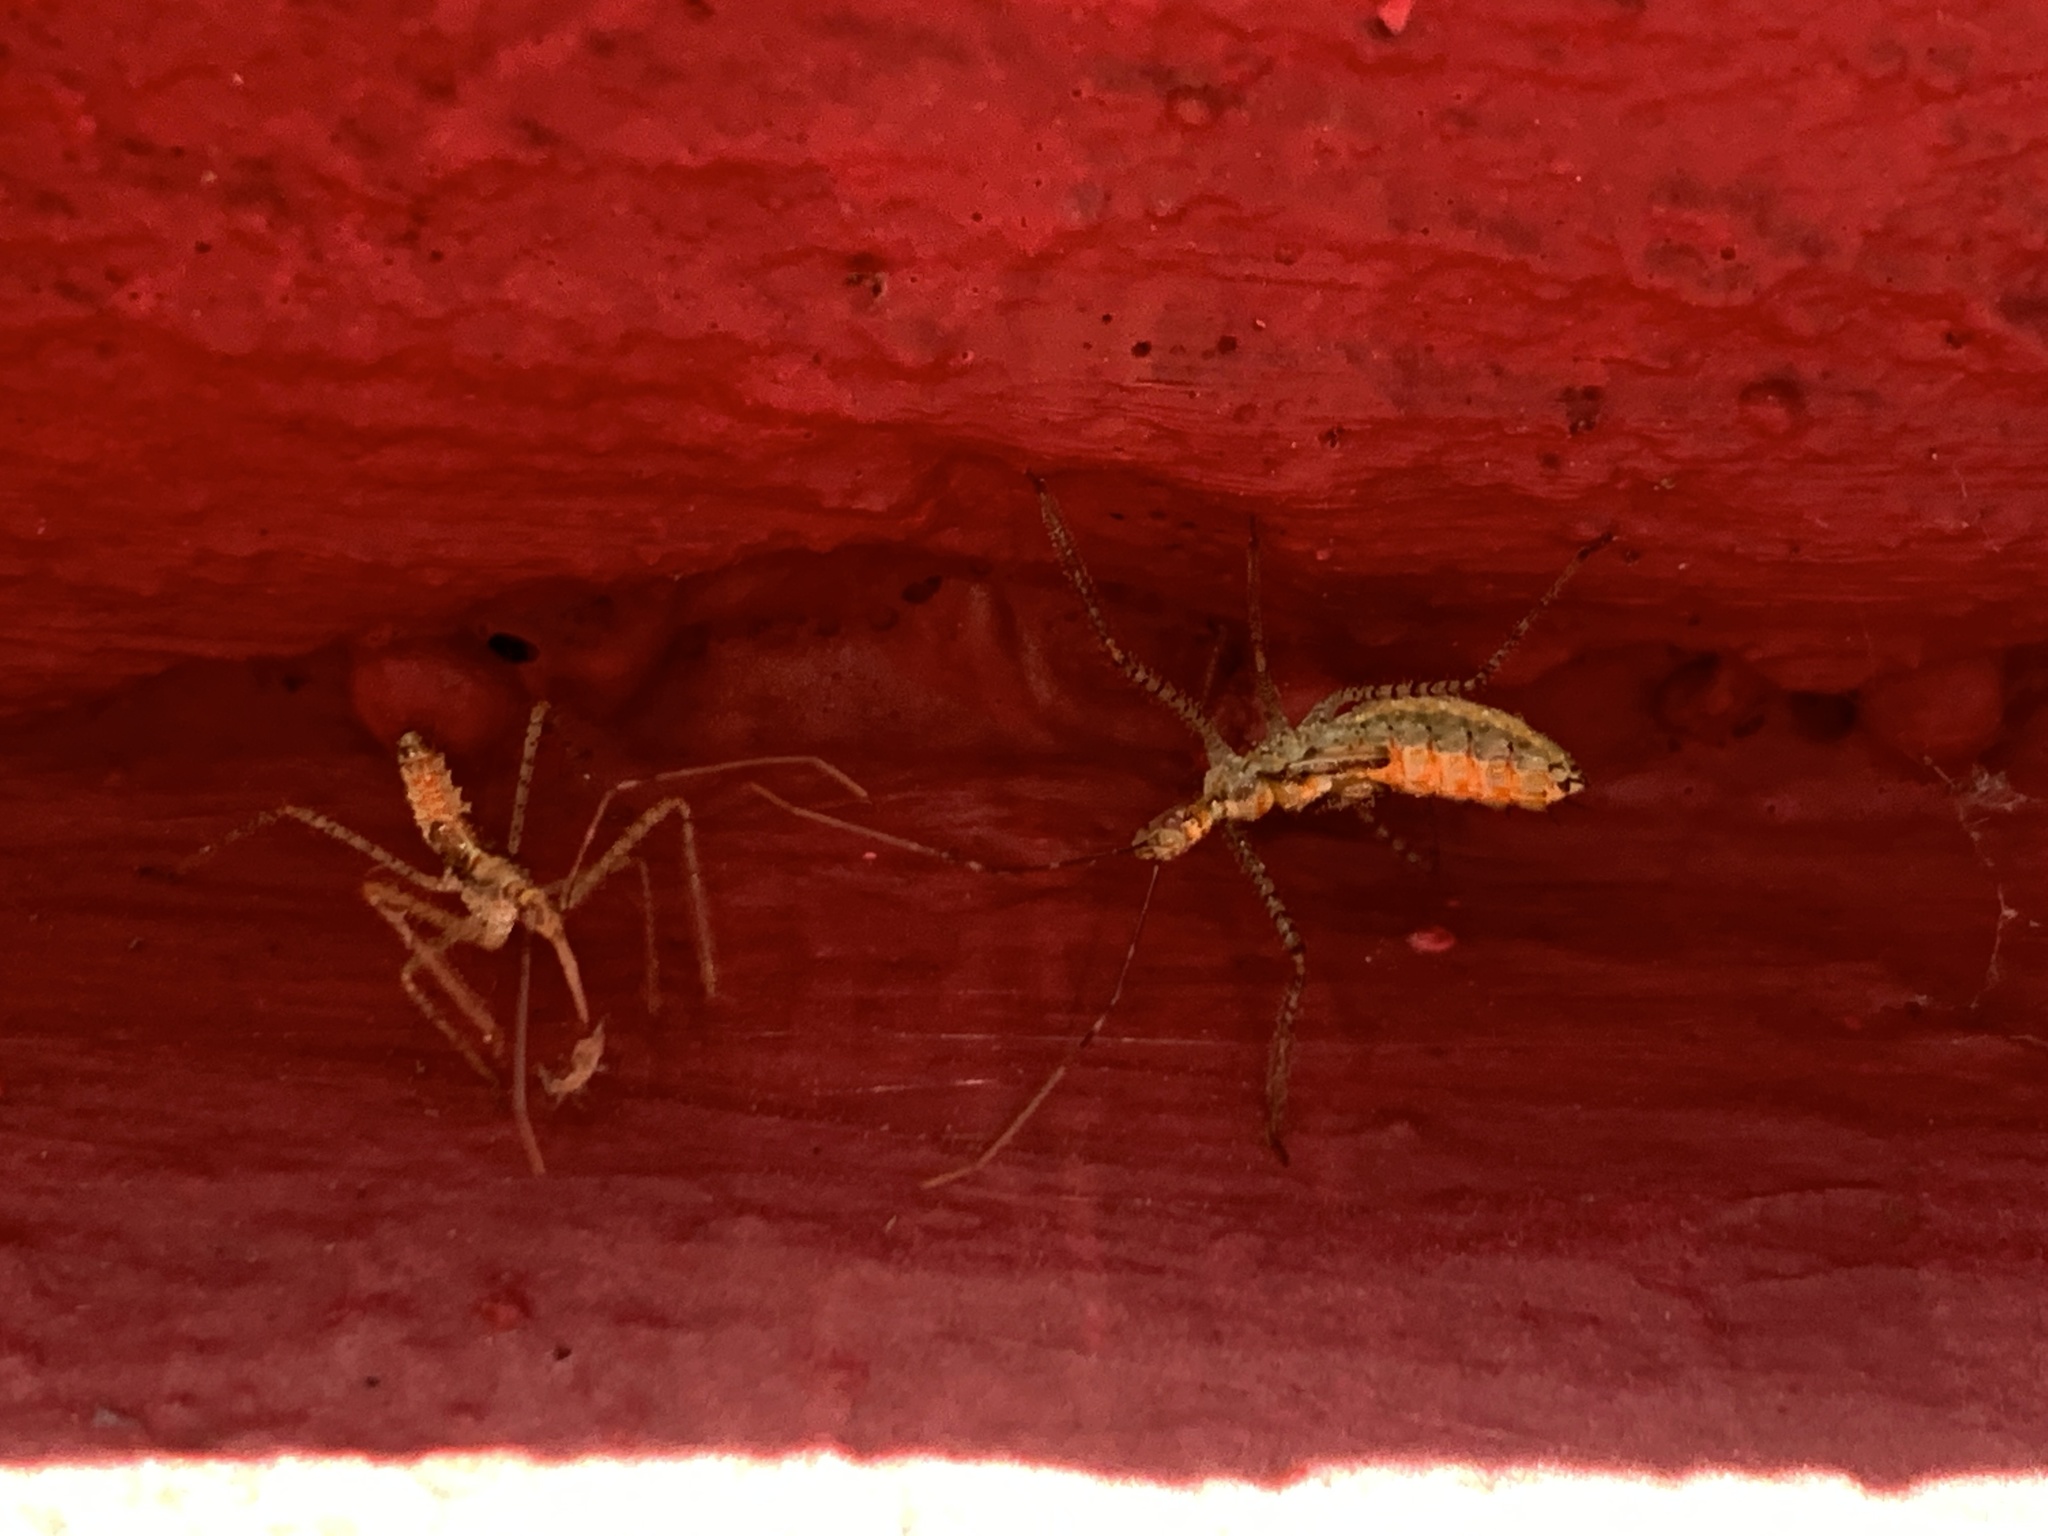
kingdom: Animalia
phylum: Arthropoda
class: Insecta
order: Hemiptera
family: Reduviidae
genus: Zelus
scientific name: Zelus renardii
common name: Assassin bug
